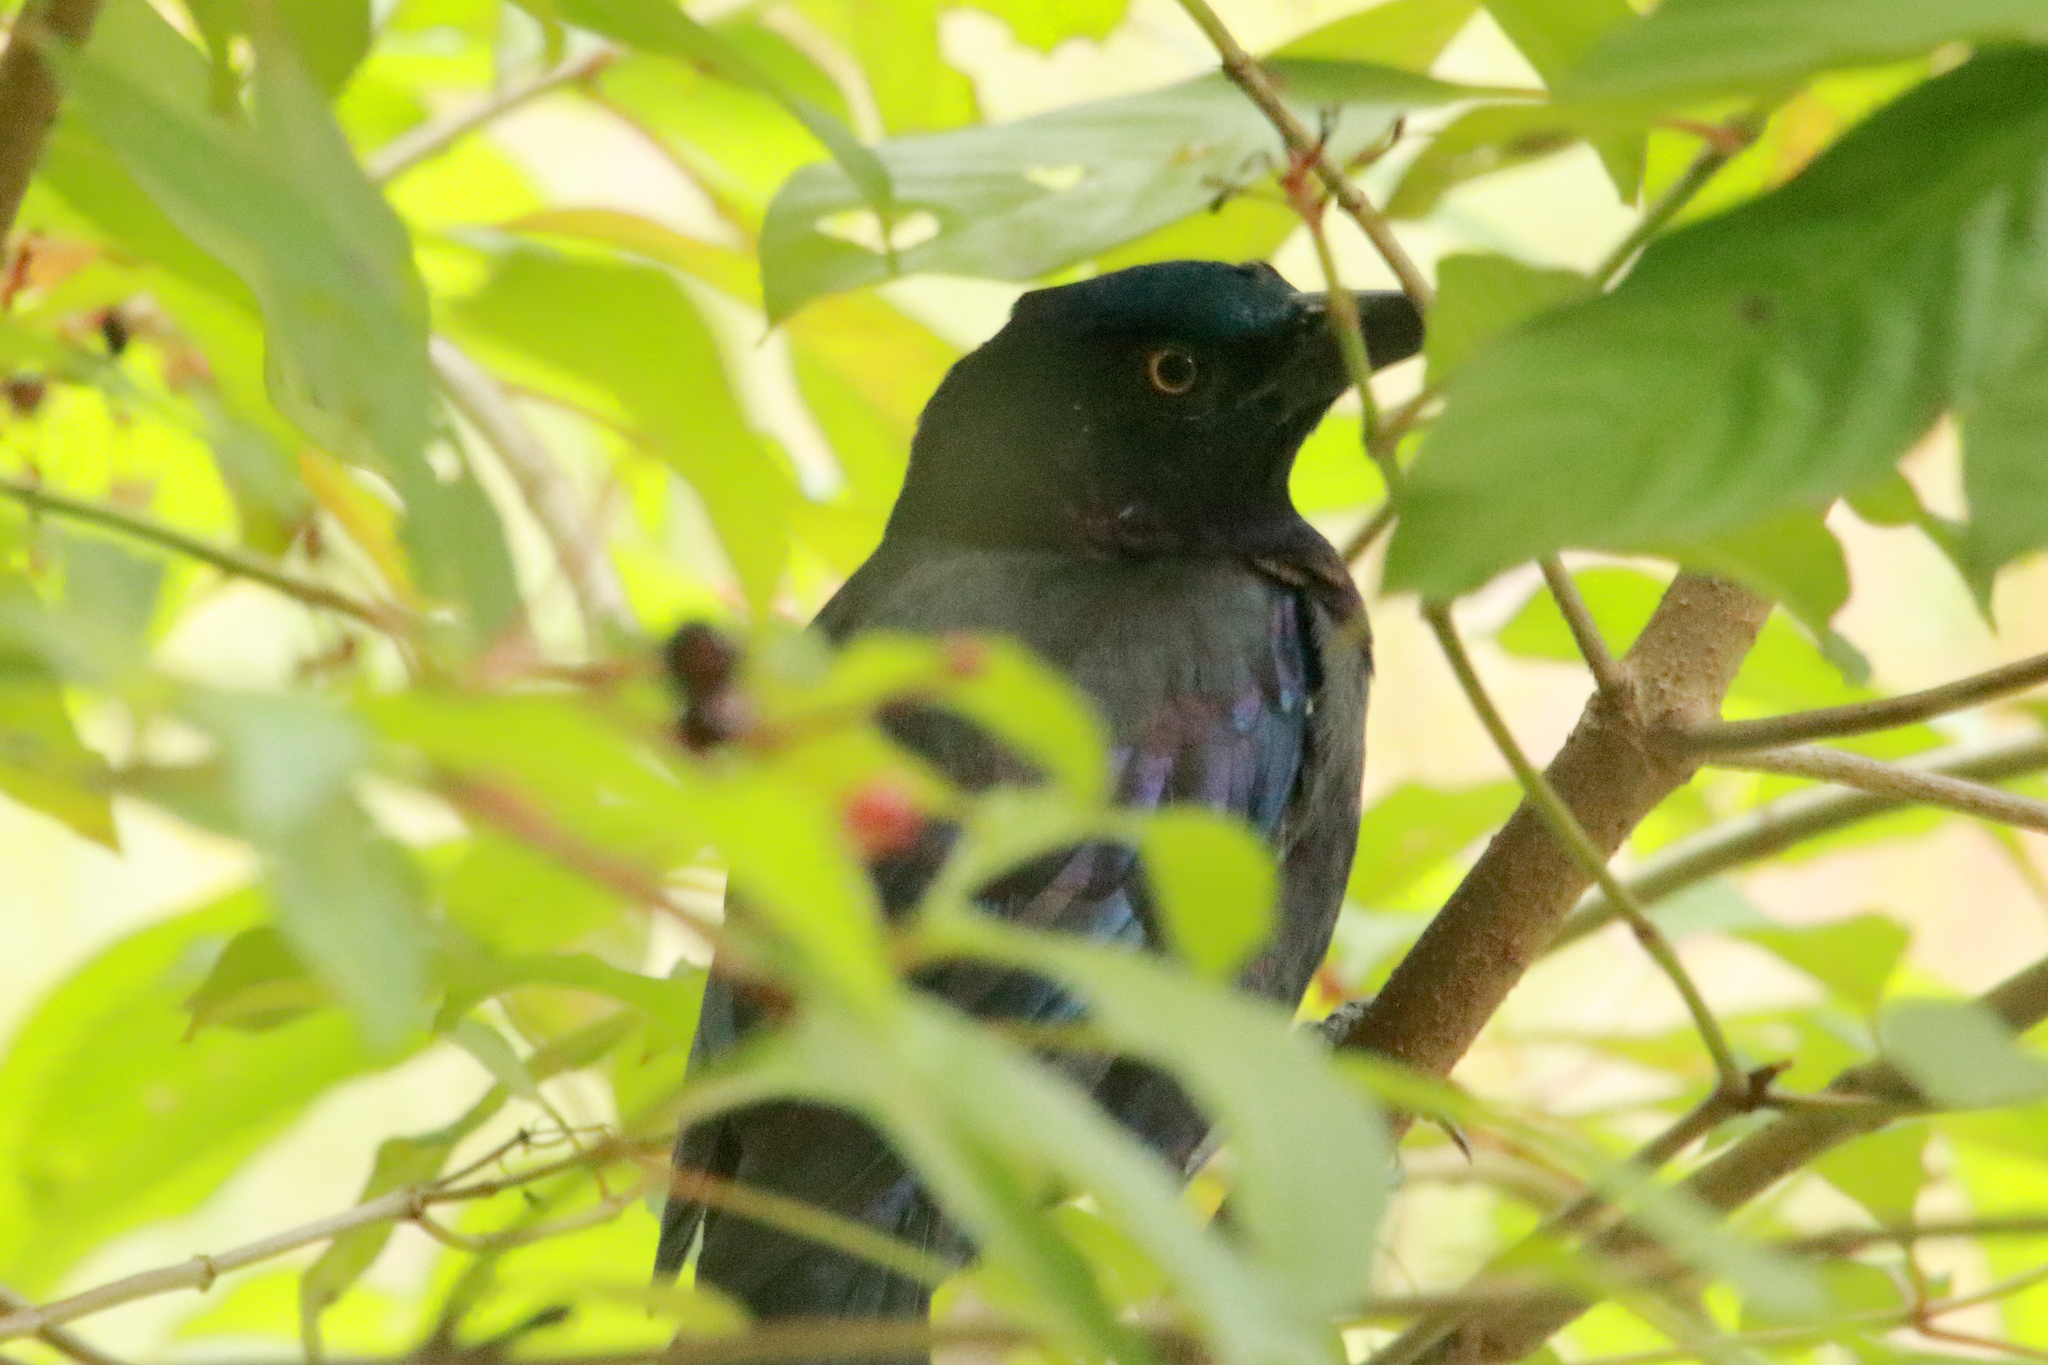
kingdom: Animalia
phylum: Chordata
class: Aves
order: Passeriformes
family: Icteridae
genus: Quiscalus
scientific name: Quiscalus quiscula
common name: Common grackle
